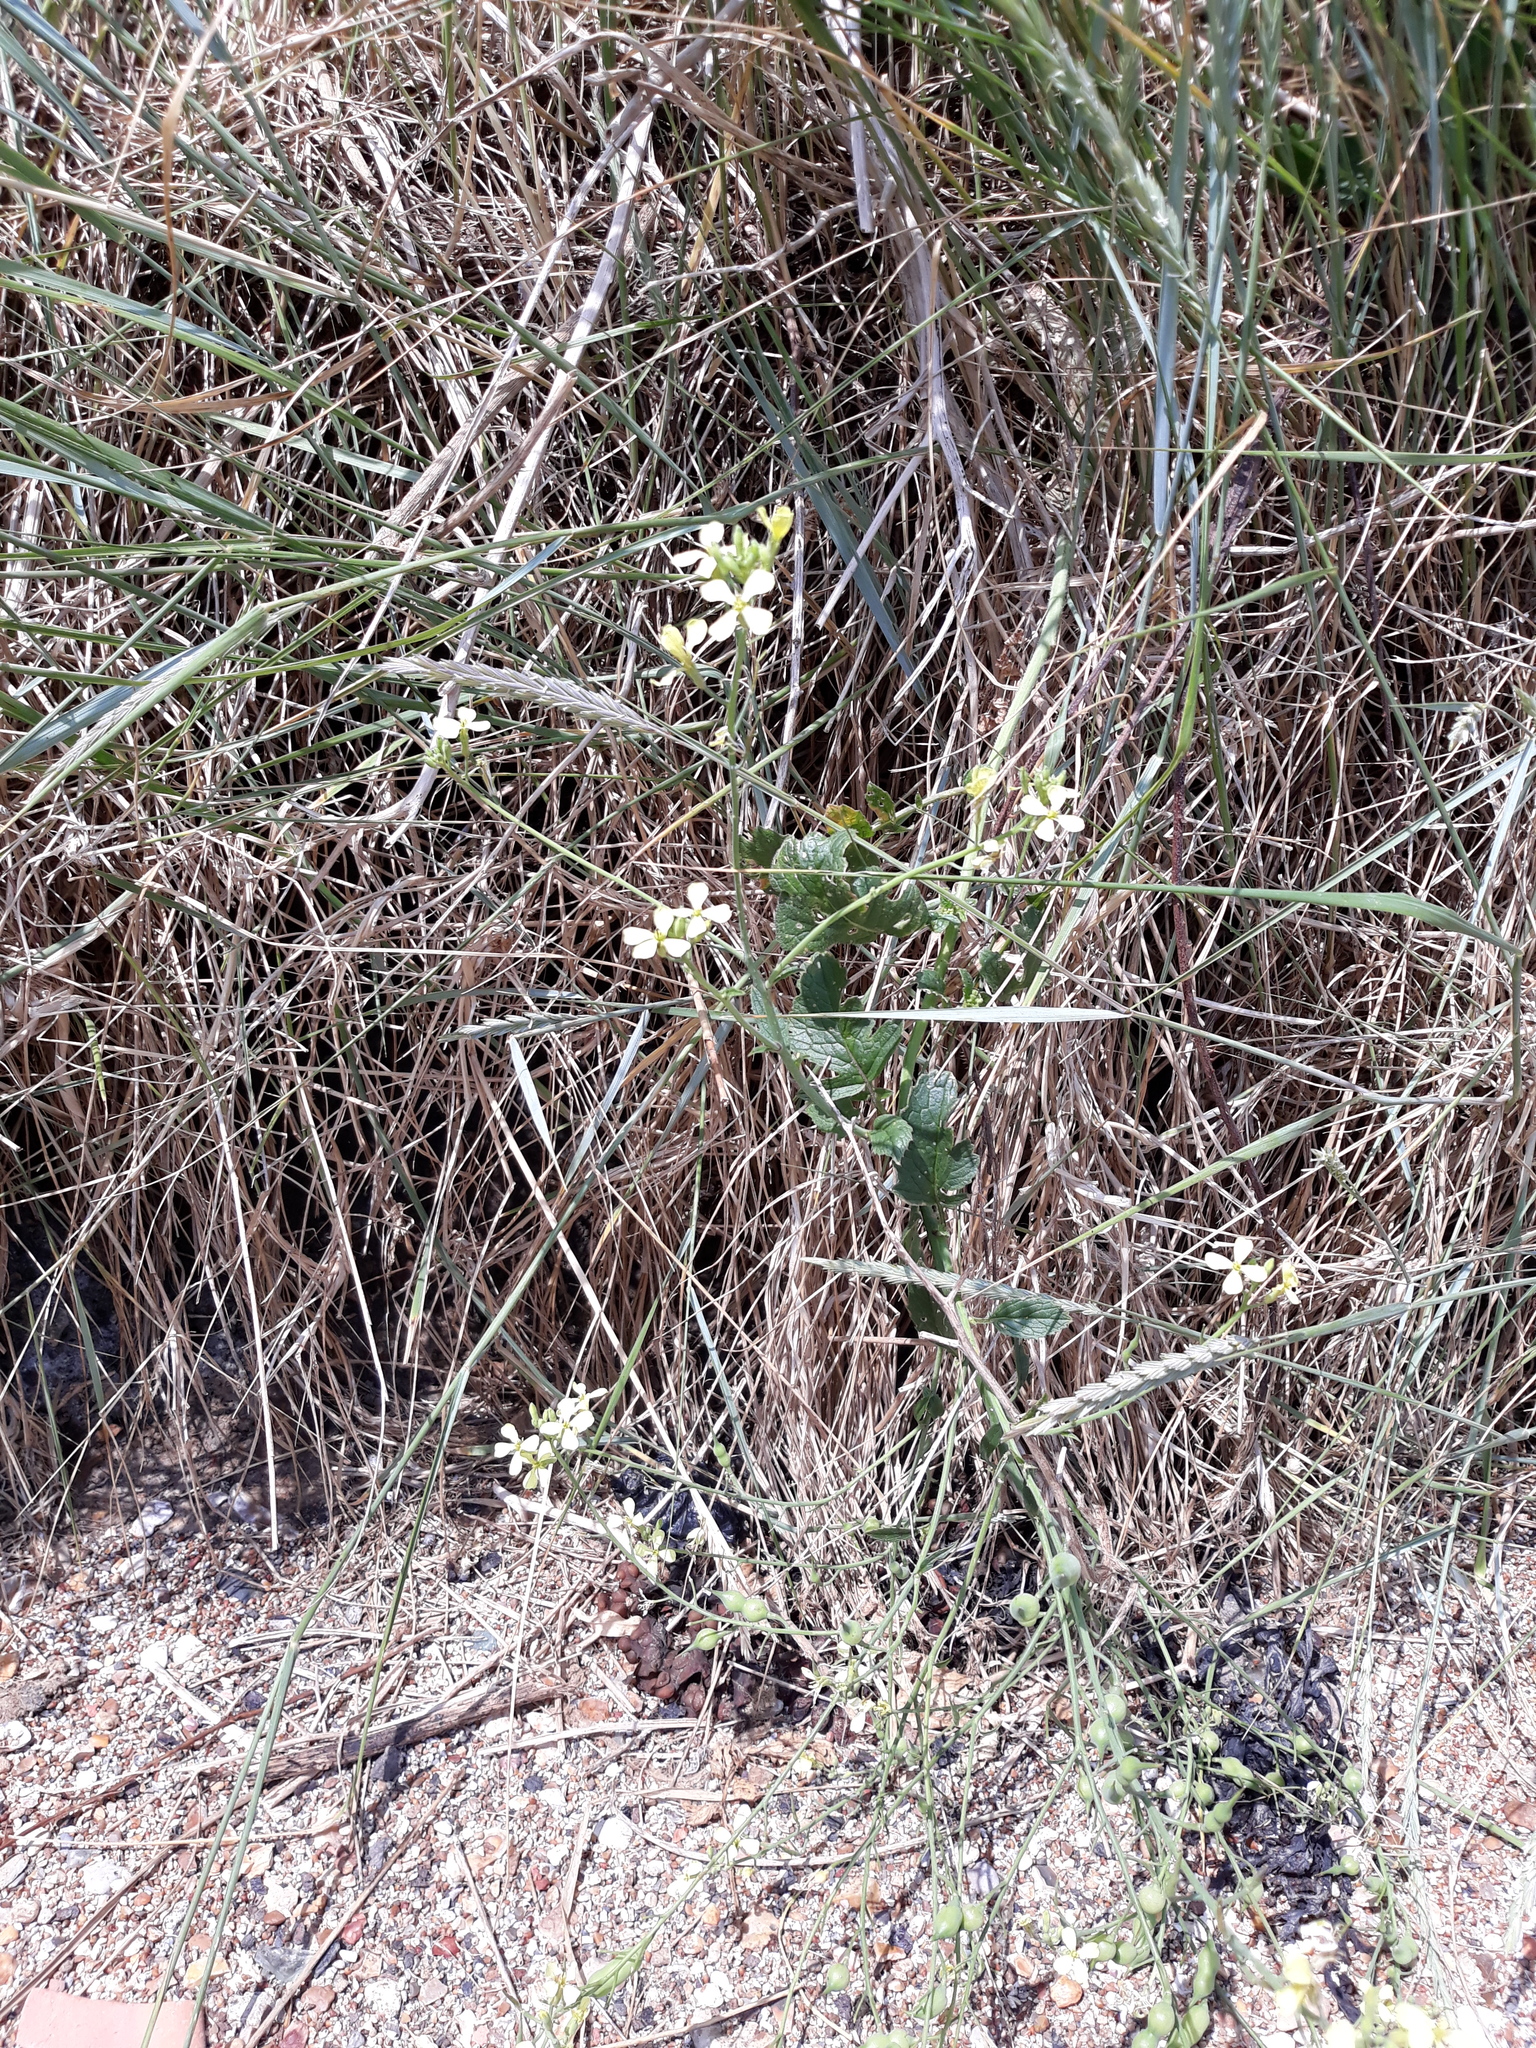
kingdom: Plantae
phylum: Tracheophyta
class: Magnoliopsida
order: Brassicales
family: Brassicaceae
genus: Raphanus
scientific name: Raphanus raphanistrum
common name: Wild radish
